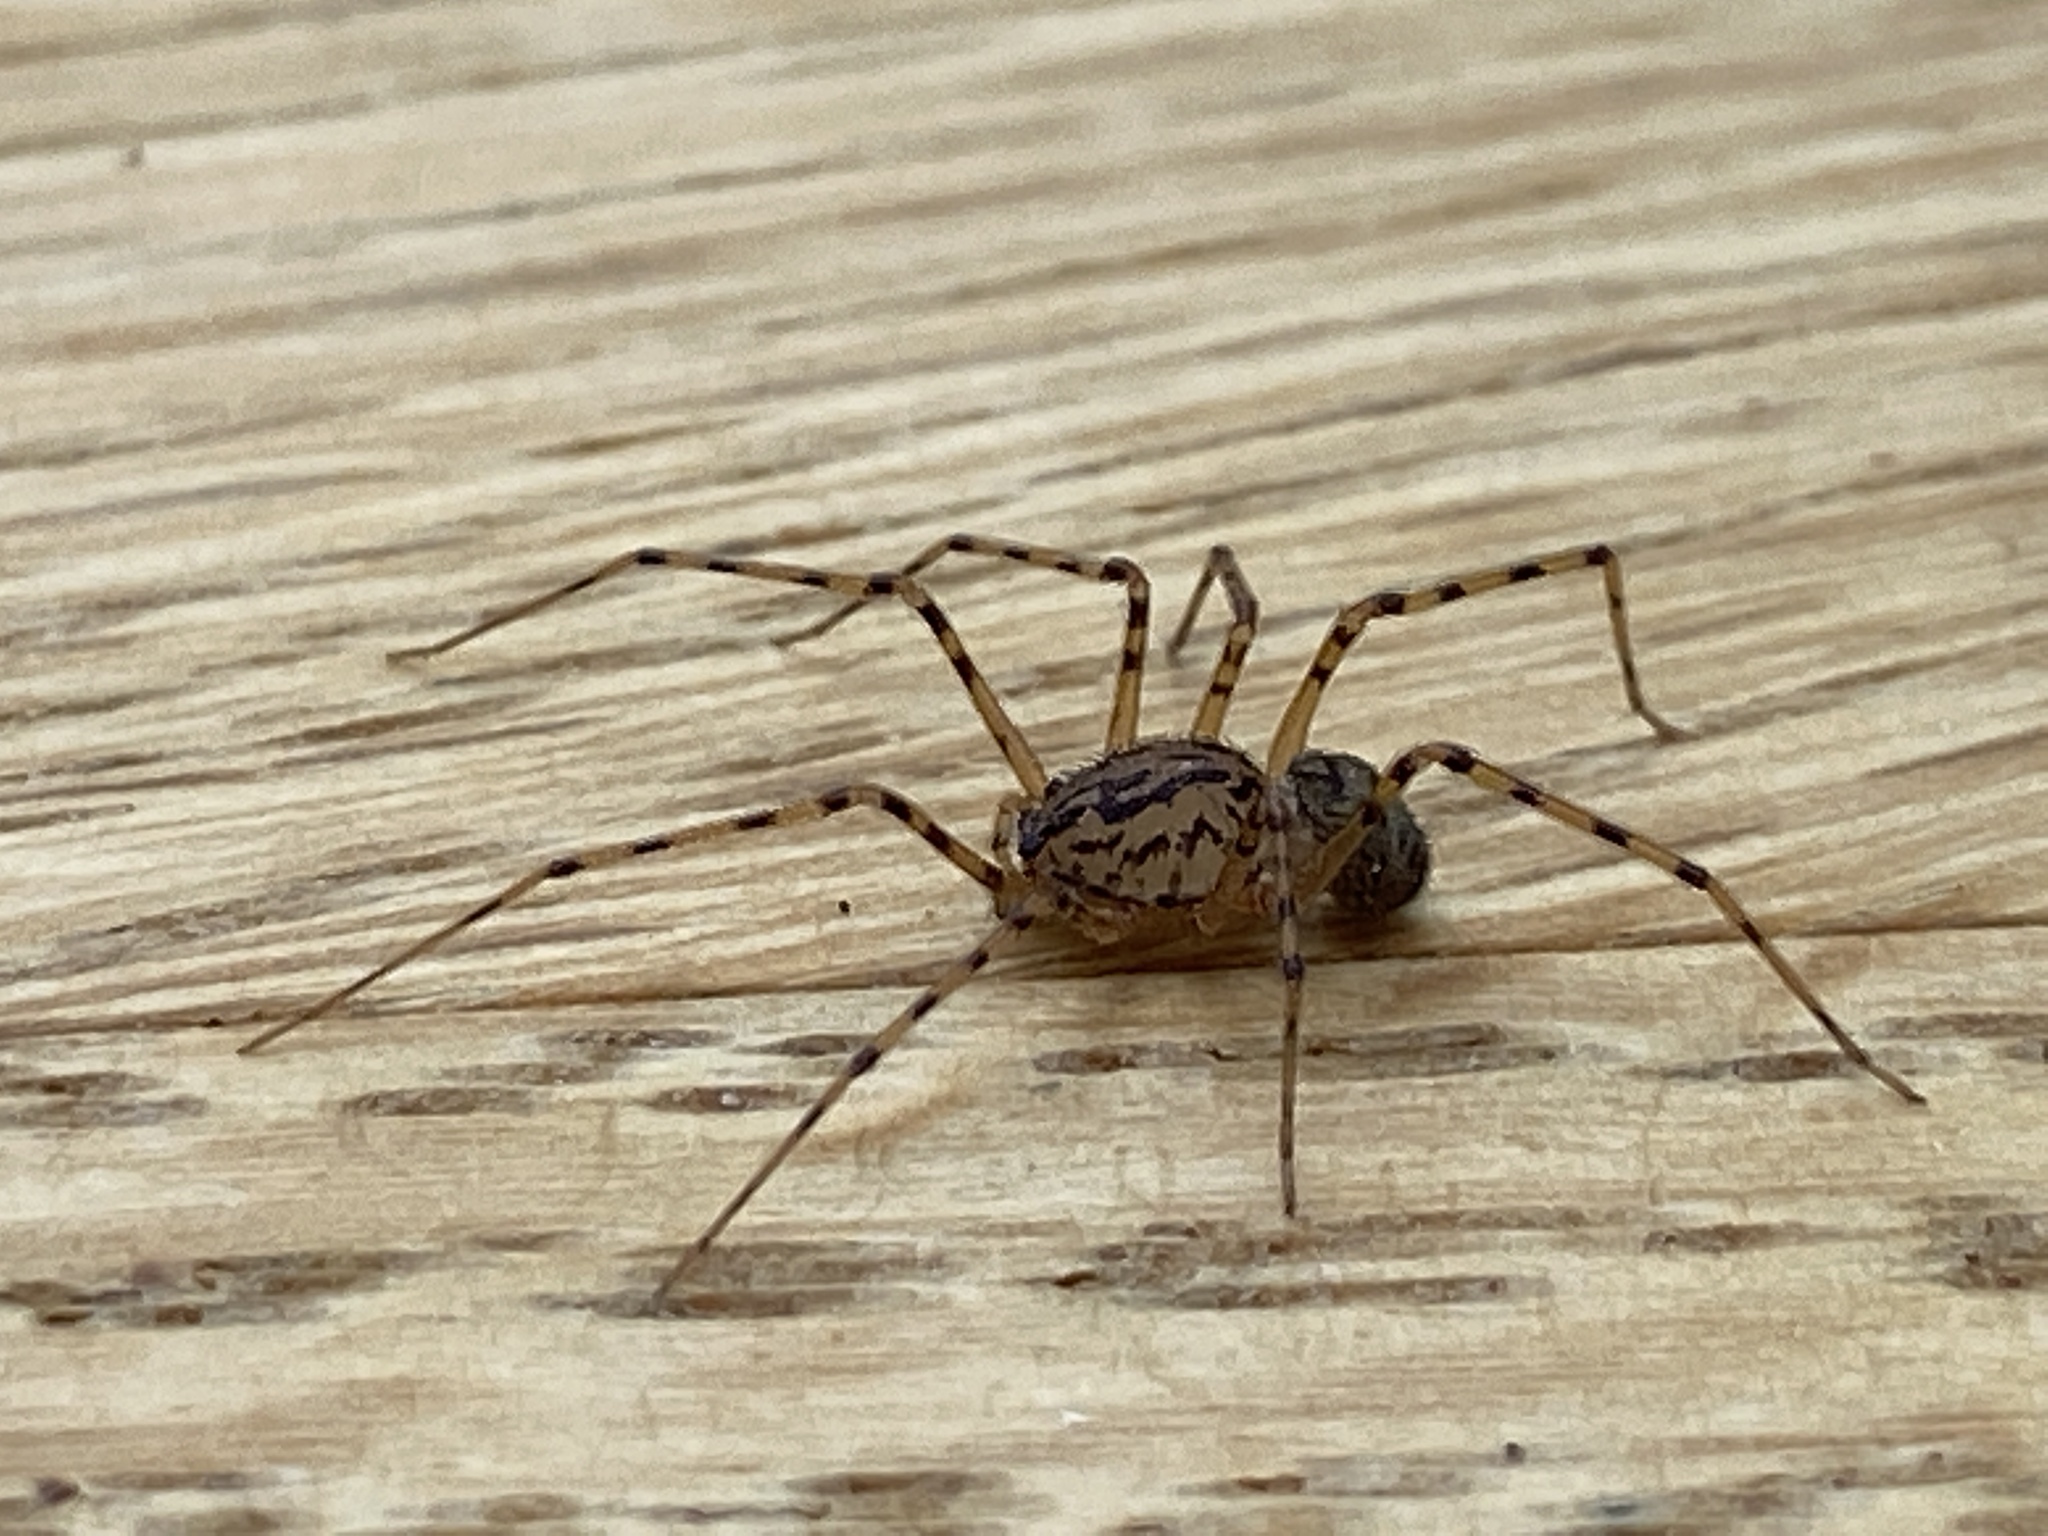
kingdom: Animalia
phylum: Arthropoda
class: Arachnida
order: Araneae
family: Scytodidae
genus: Scytodes
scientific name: Scytodes thoracica
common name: Spitting spider
